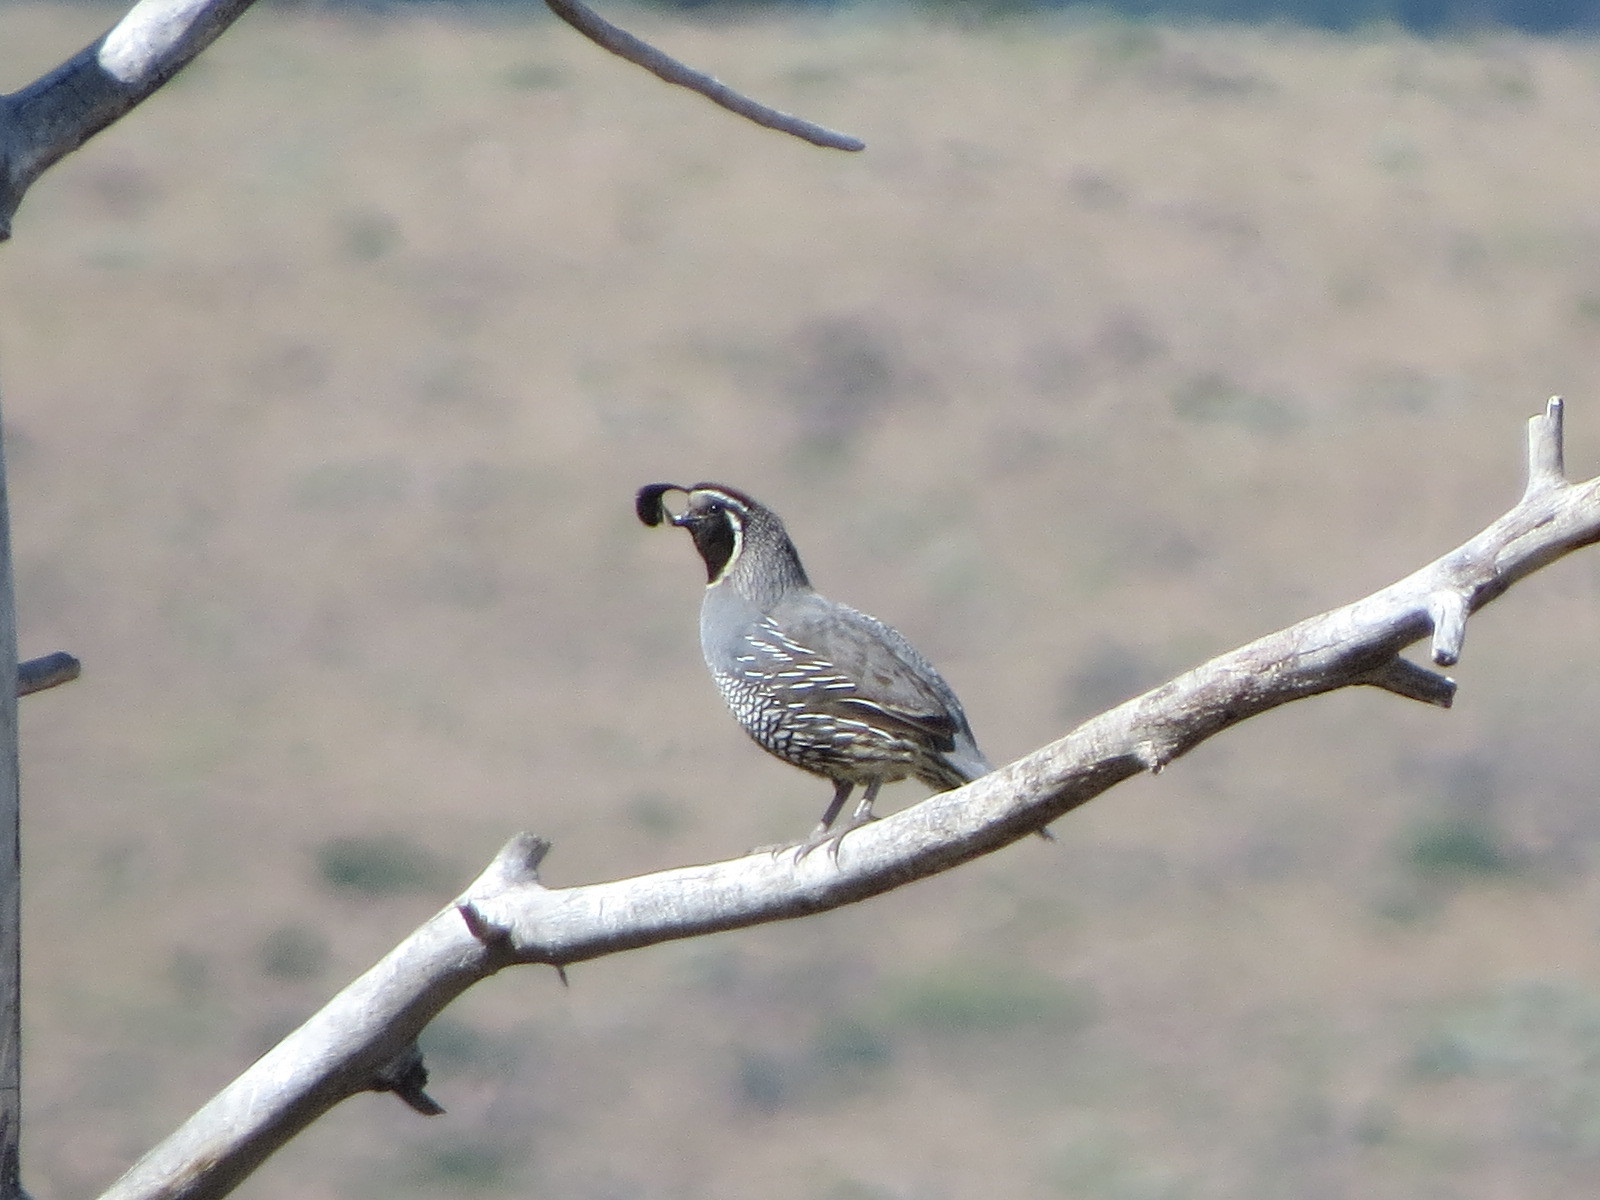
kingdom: Animalia
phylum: Chordata
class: Aves
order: Galliformes
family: Odontophoridae
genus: Callipepla
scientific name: Callipepla californica
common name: California quail
